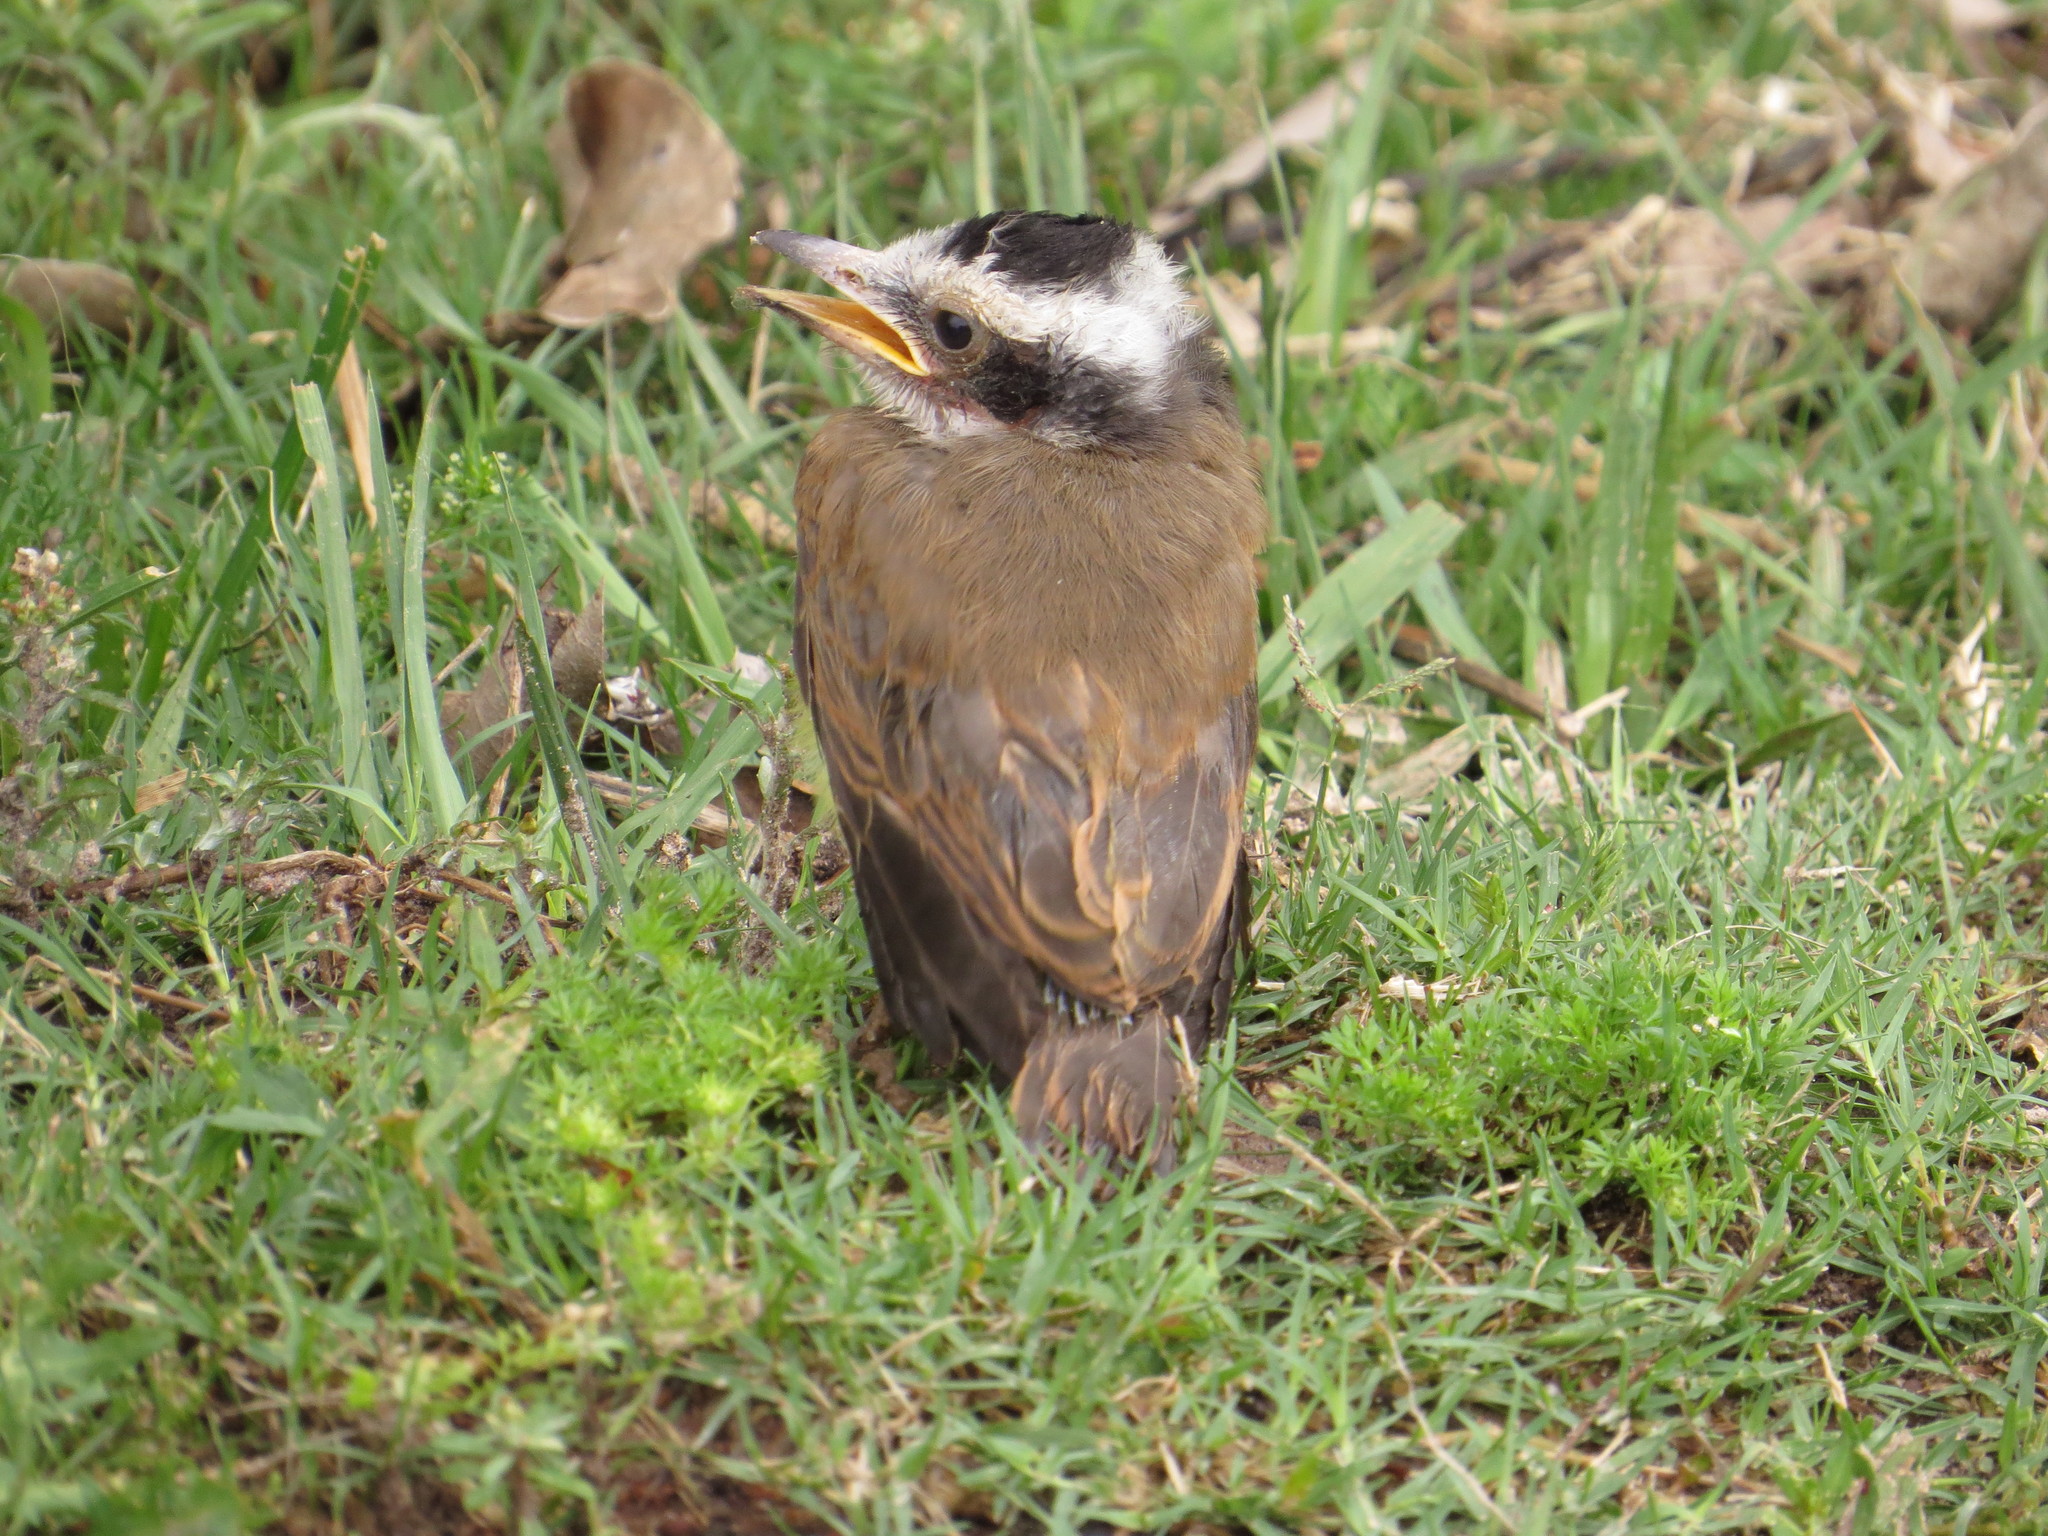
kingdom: Animalia
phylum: Chordata
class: Aves
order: Passeriformes
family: Tyrannidae
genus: Pitangus
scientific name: Pitangus sulphuratus
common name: Great kiskadee
